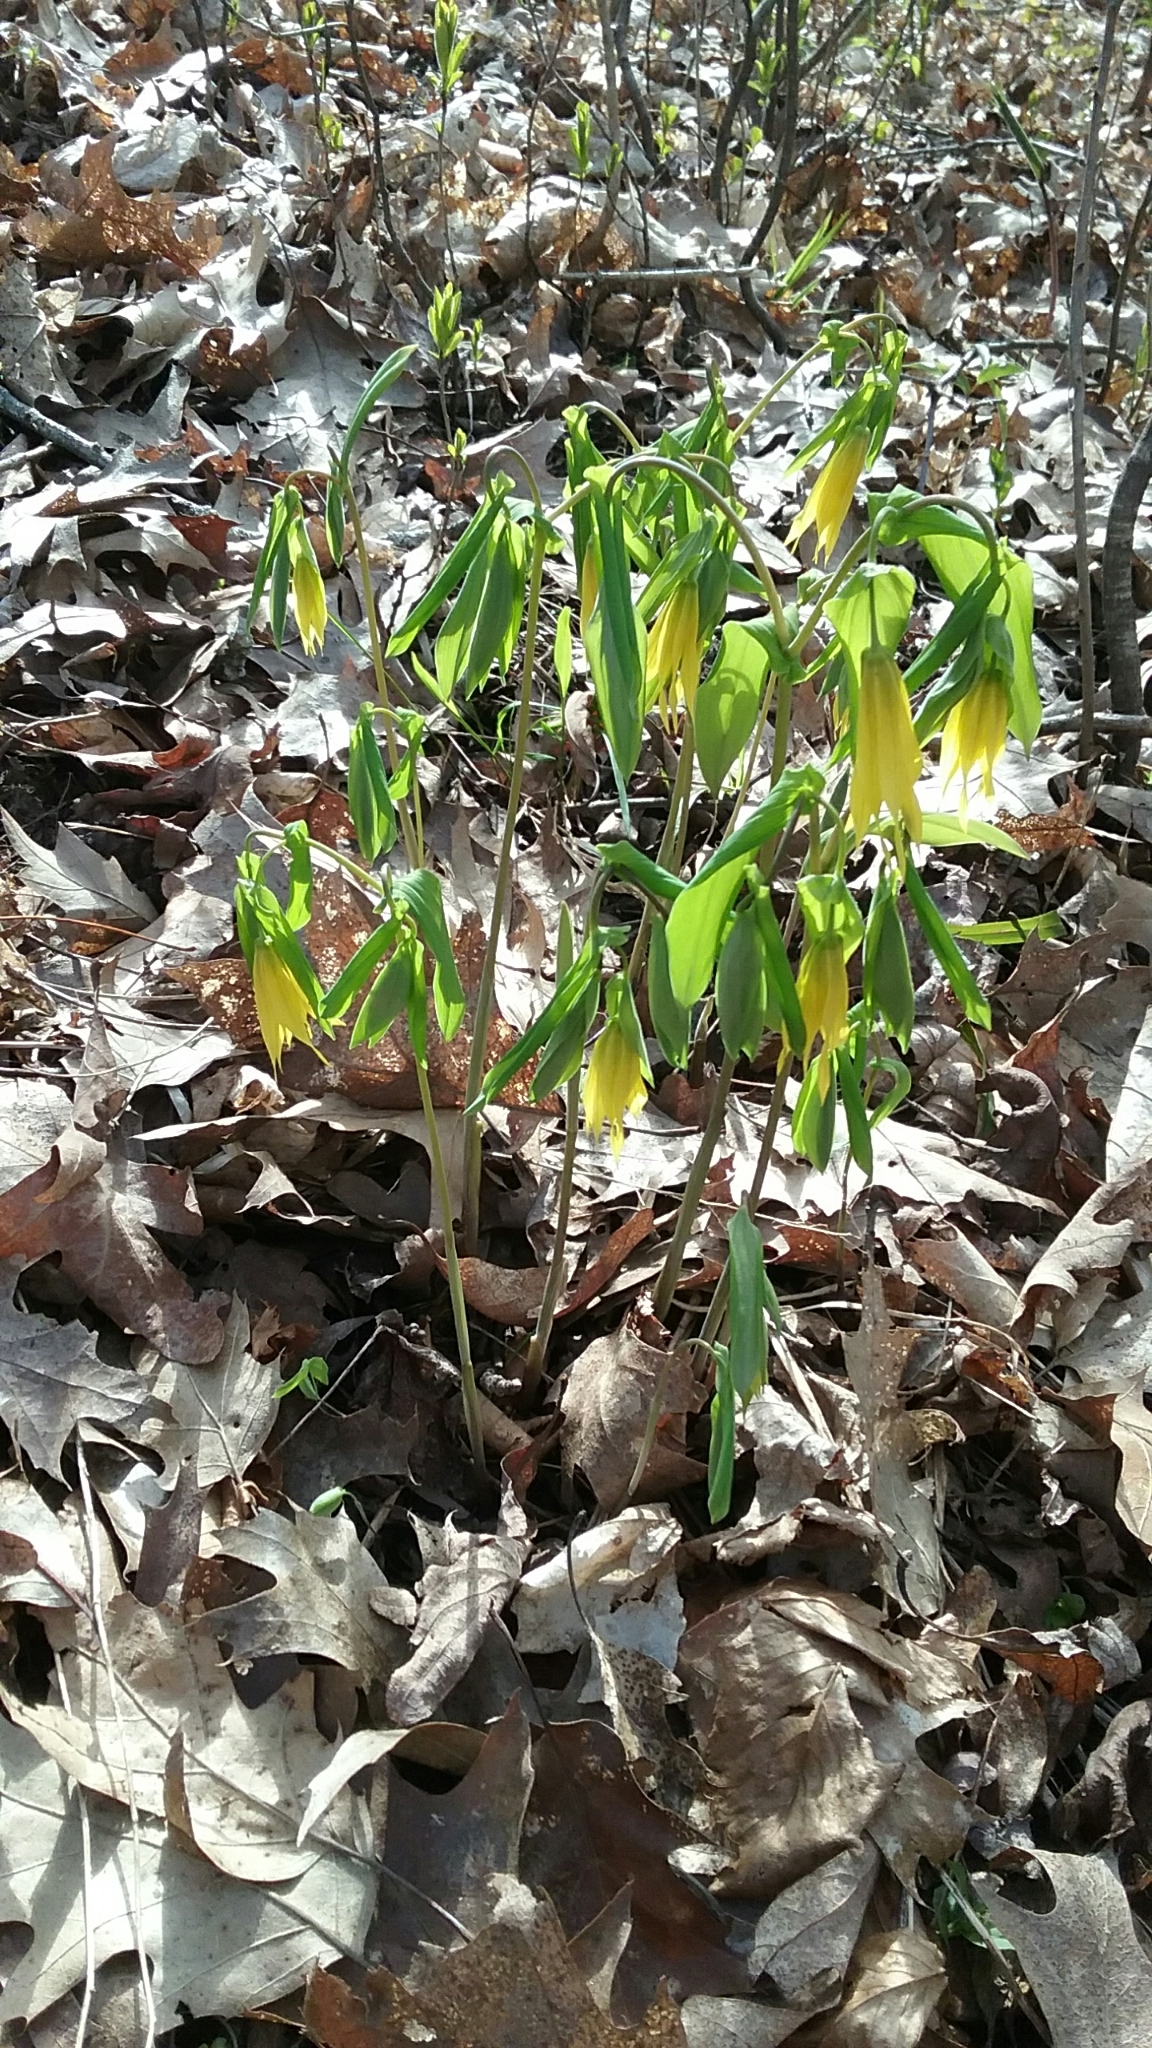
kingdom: Plantae
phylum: Tracheophyta
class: Liliopsida
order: Liliales
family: Colchicaceae
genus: Uvularia
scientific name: Uvularia grandiflora
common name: Bellwort
